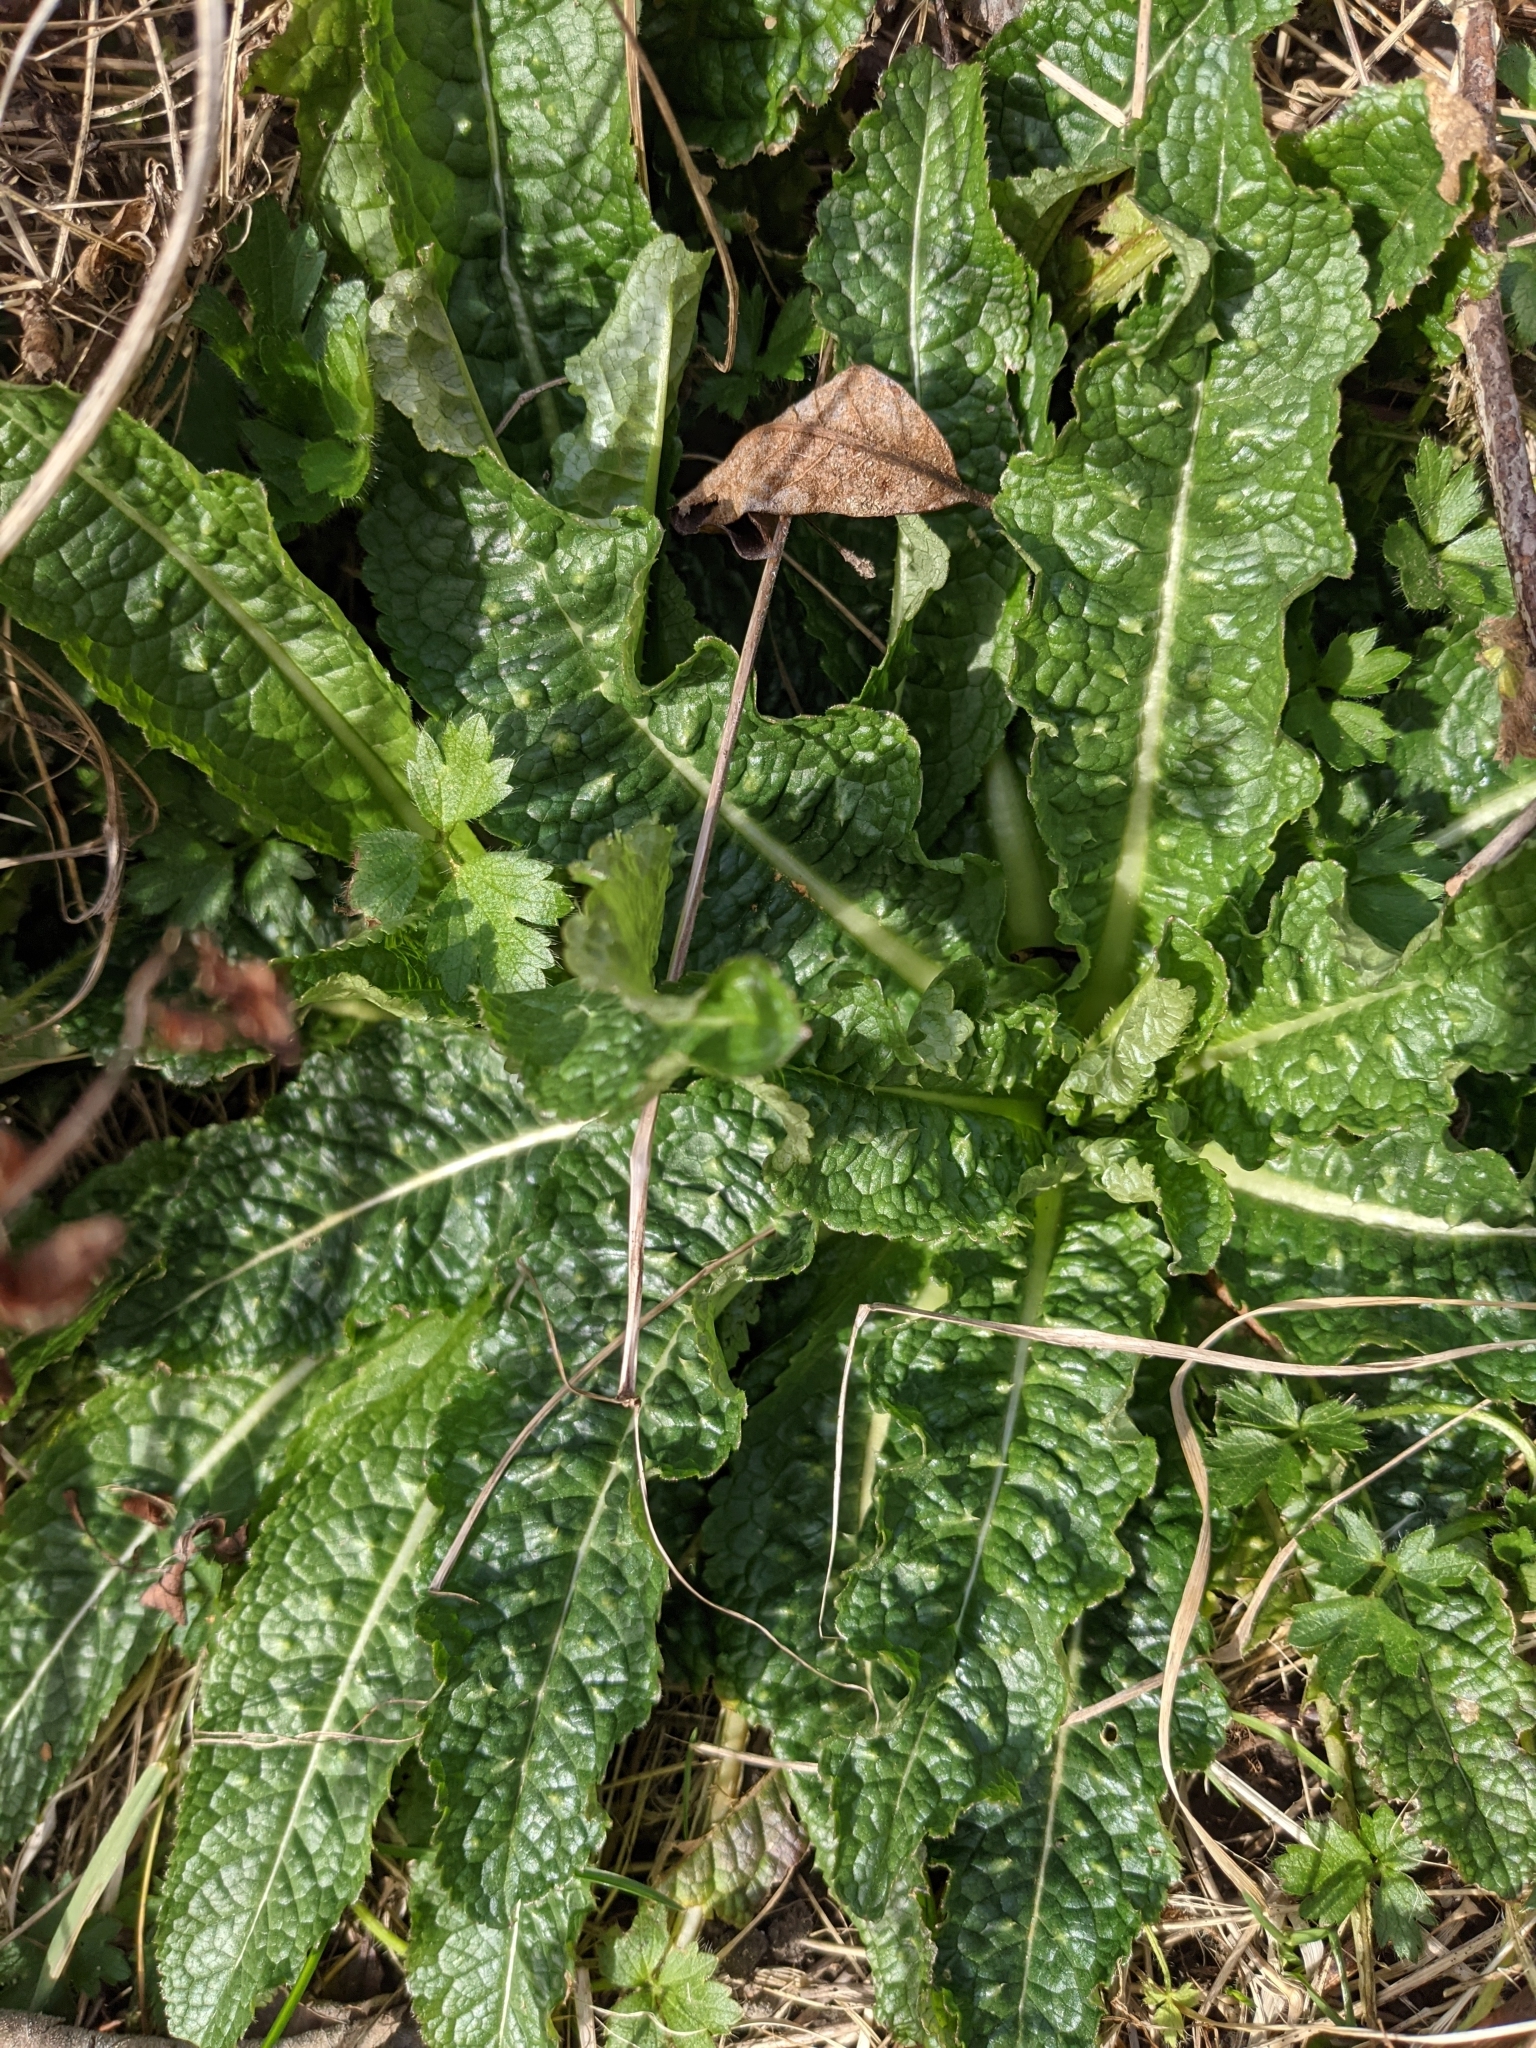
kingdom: Plantae
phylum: Tracheophyta
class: Magnoliopsida
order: Dipsacales
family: Caprifoliaceae
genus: Dipsacus
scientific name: Dipsacus fullonum
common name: Teasel
